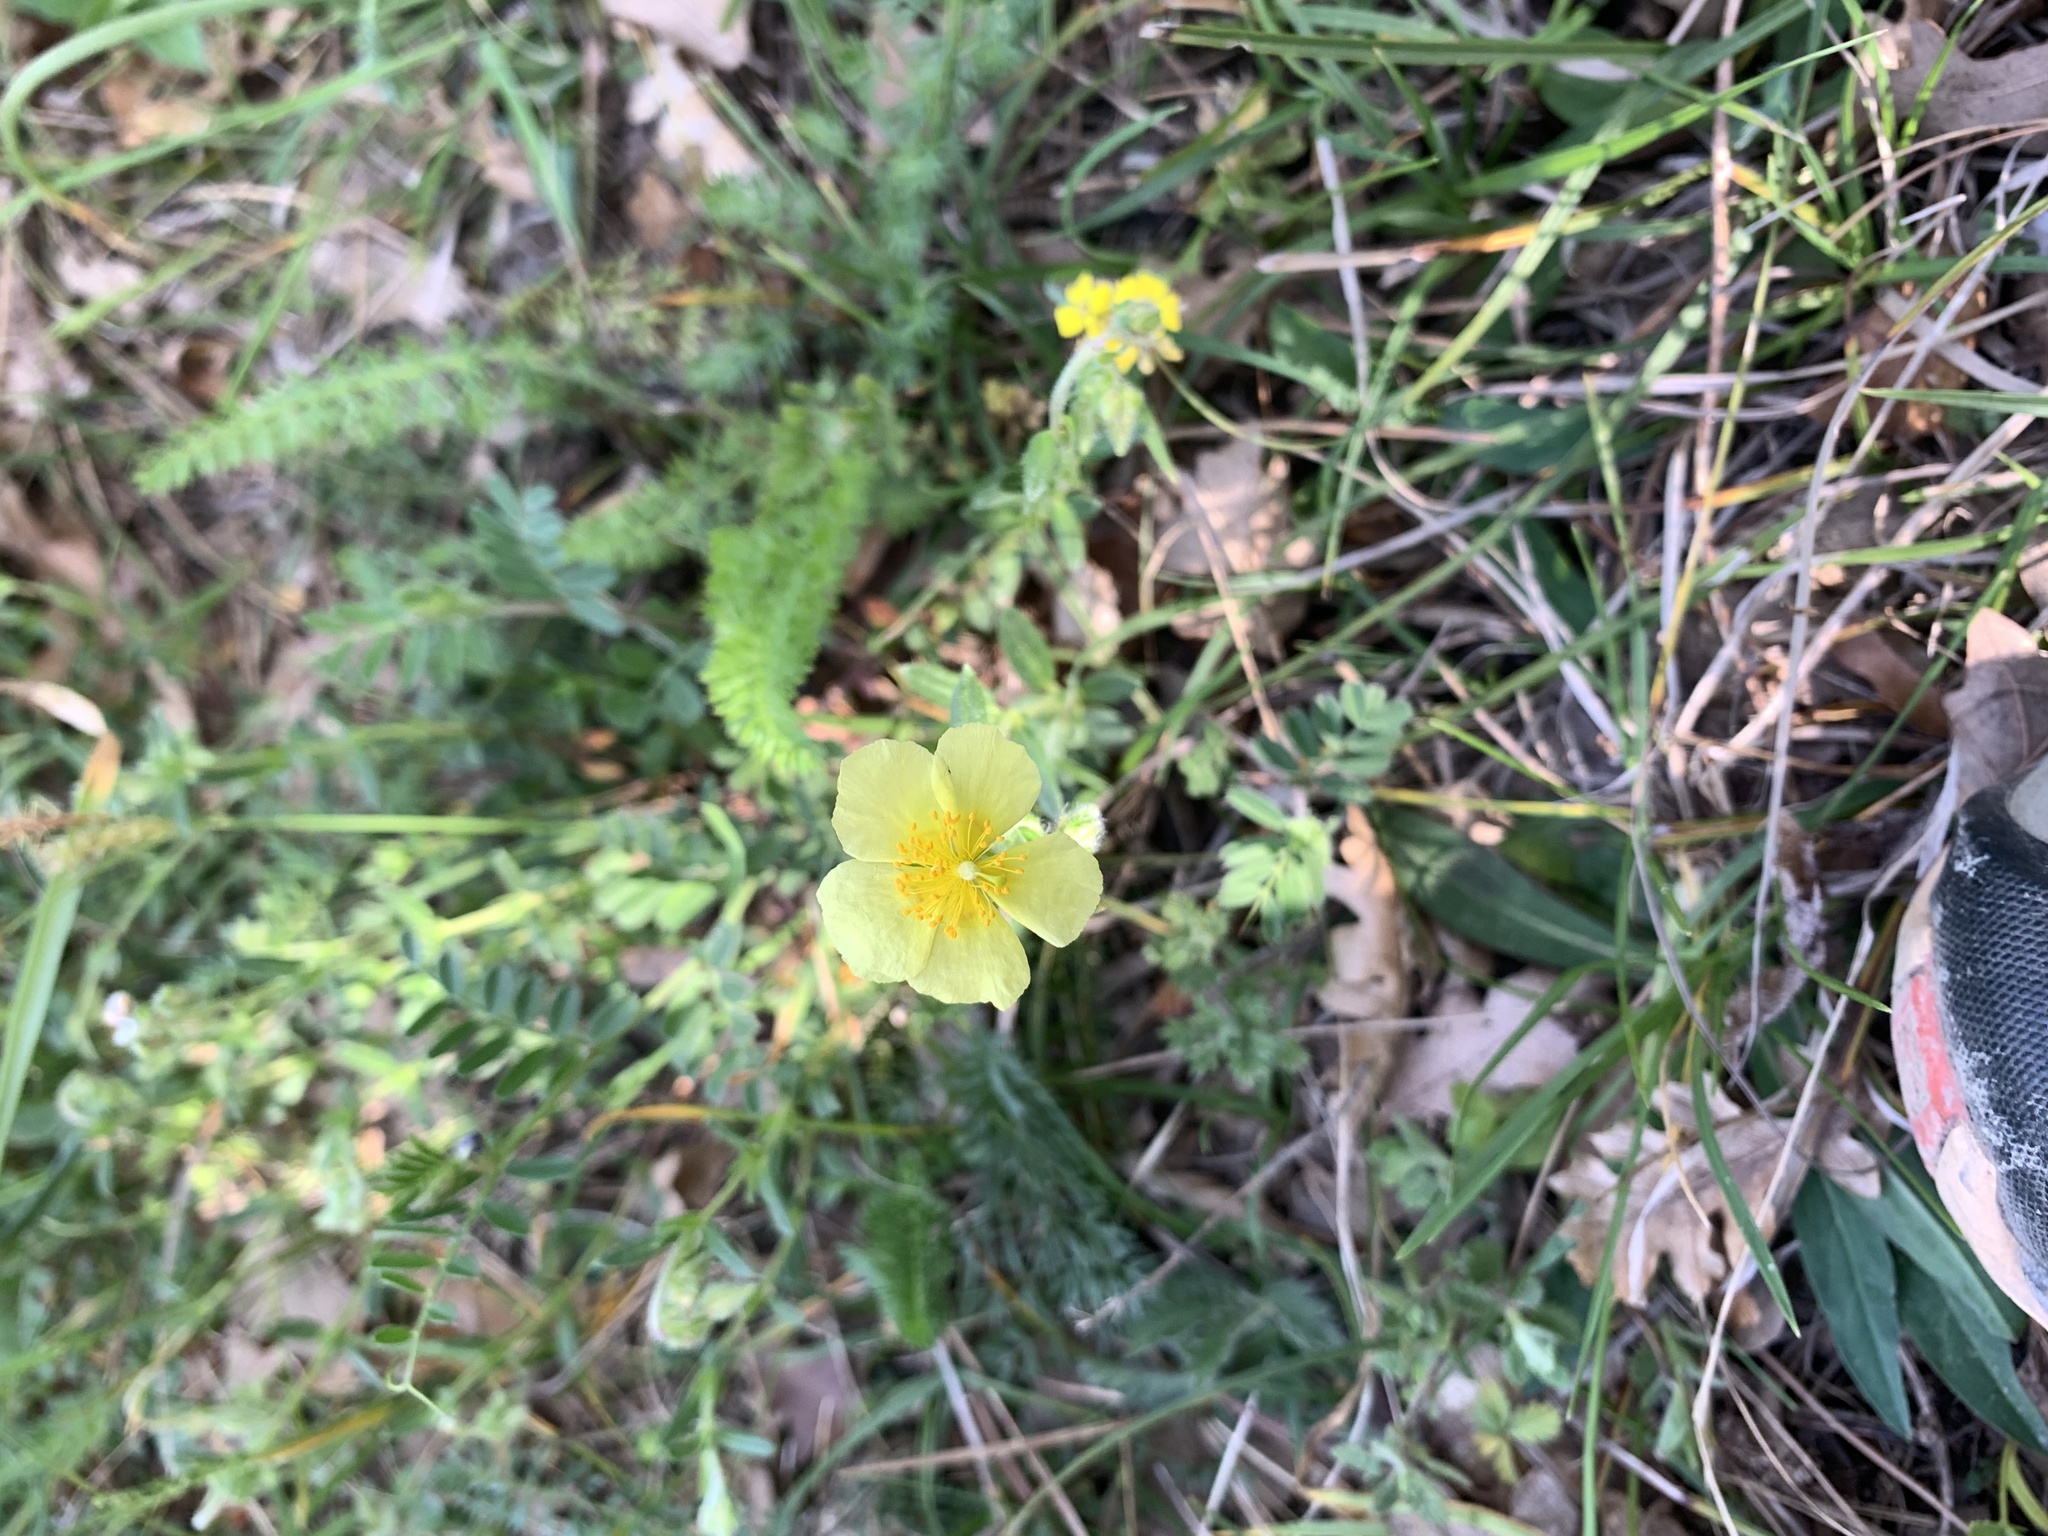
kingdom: Plantae
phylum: Tracheophyta
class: Magnoliopsida
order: Malvales
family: Cistaceae
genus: Helianthemum
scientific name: Helianthemum nummularium
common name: Common rock-rose
